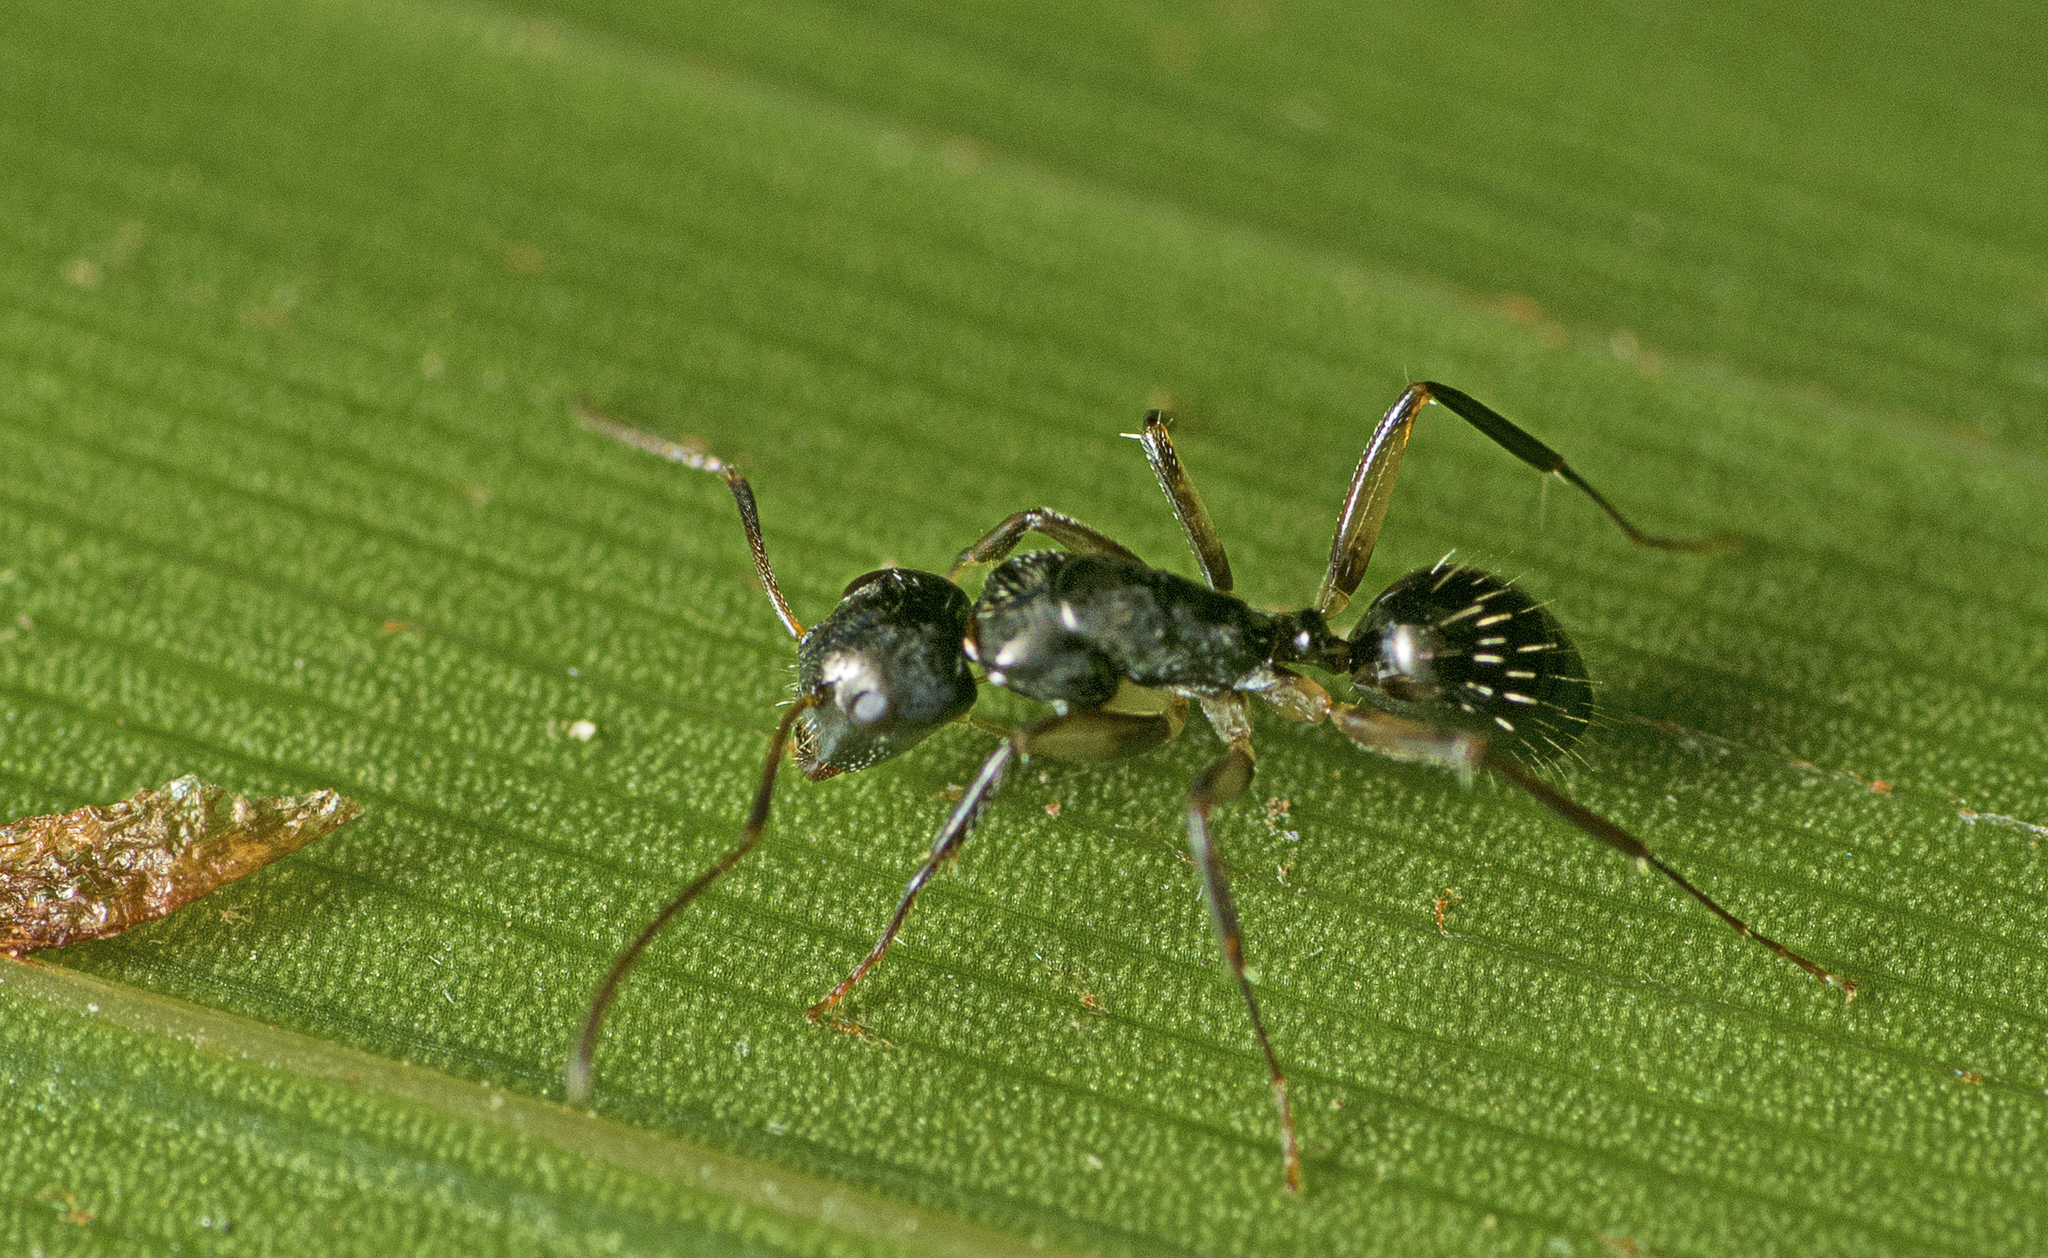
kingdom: Animalia
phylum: Arthropoda
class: Insecta
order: Hymenoptera
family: Formicidae
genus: Camponotus
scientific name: Camponotus froggatti
